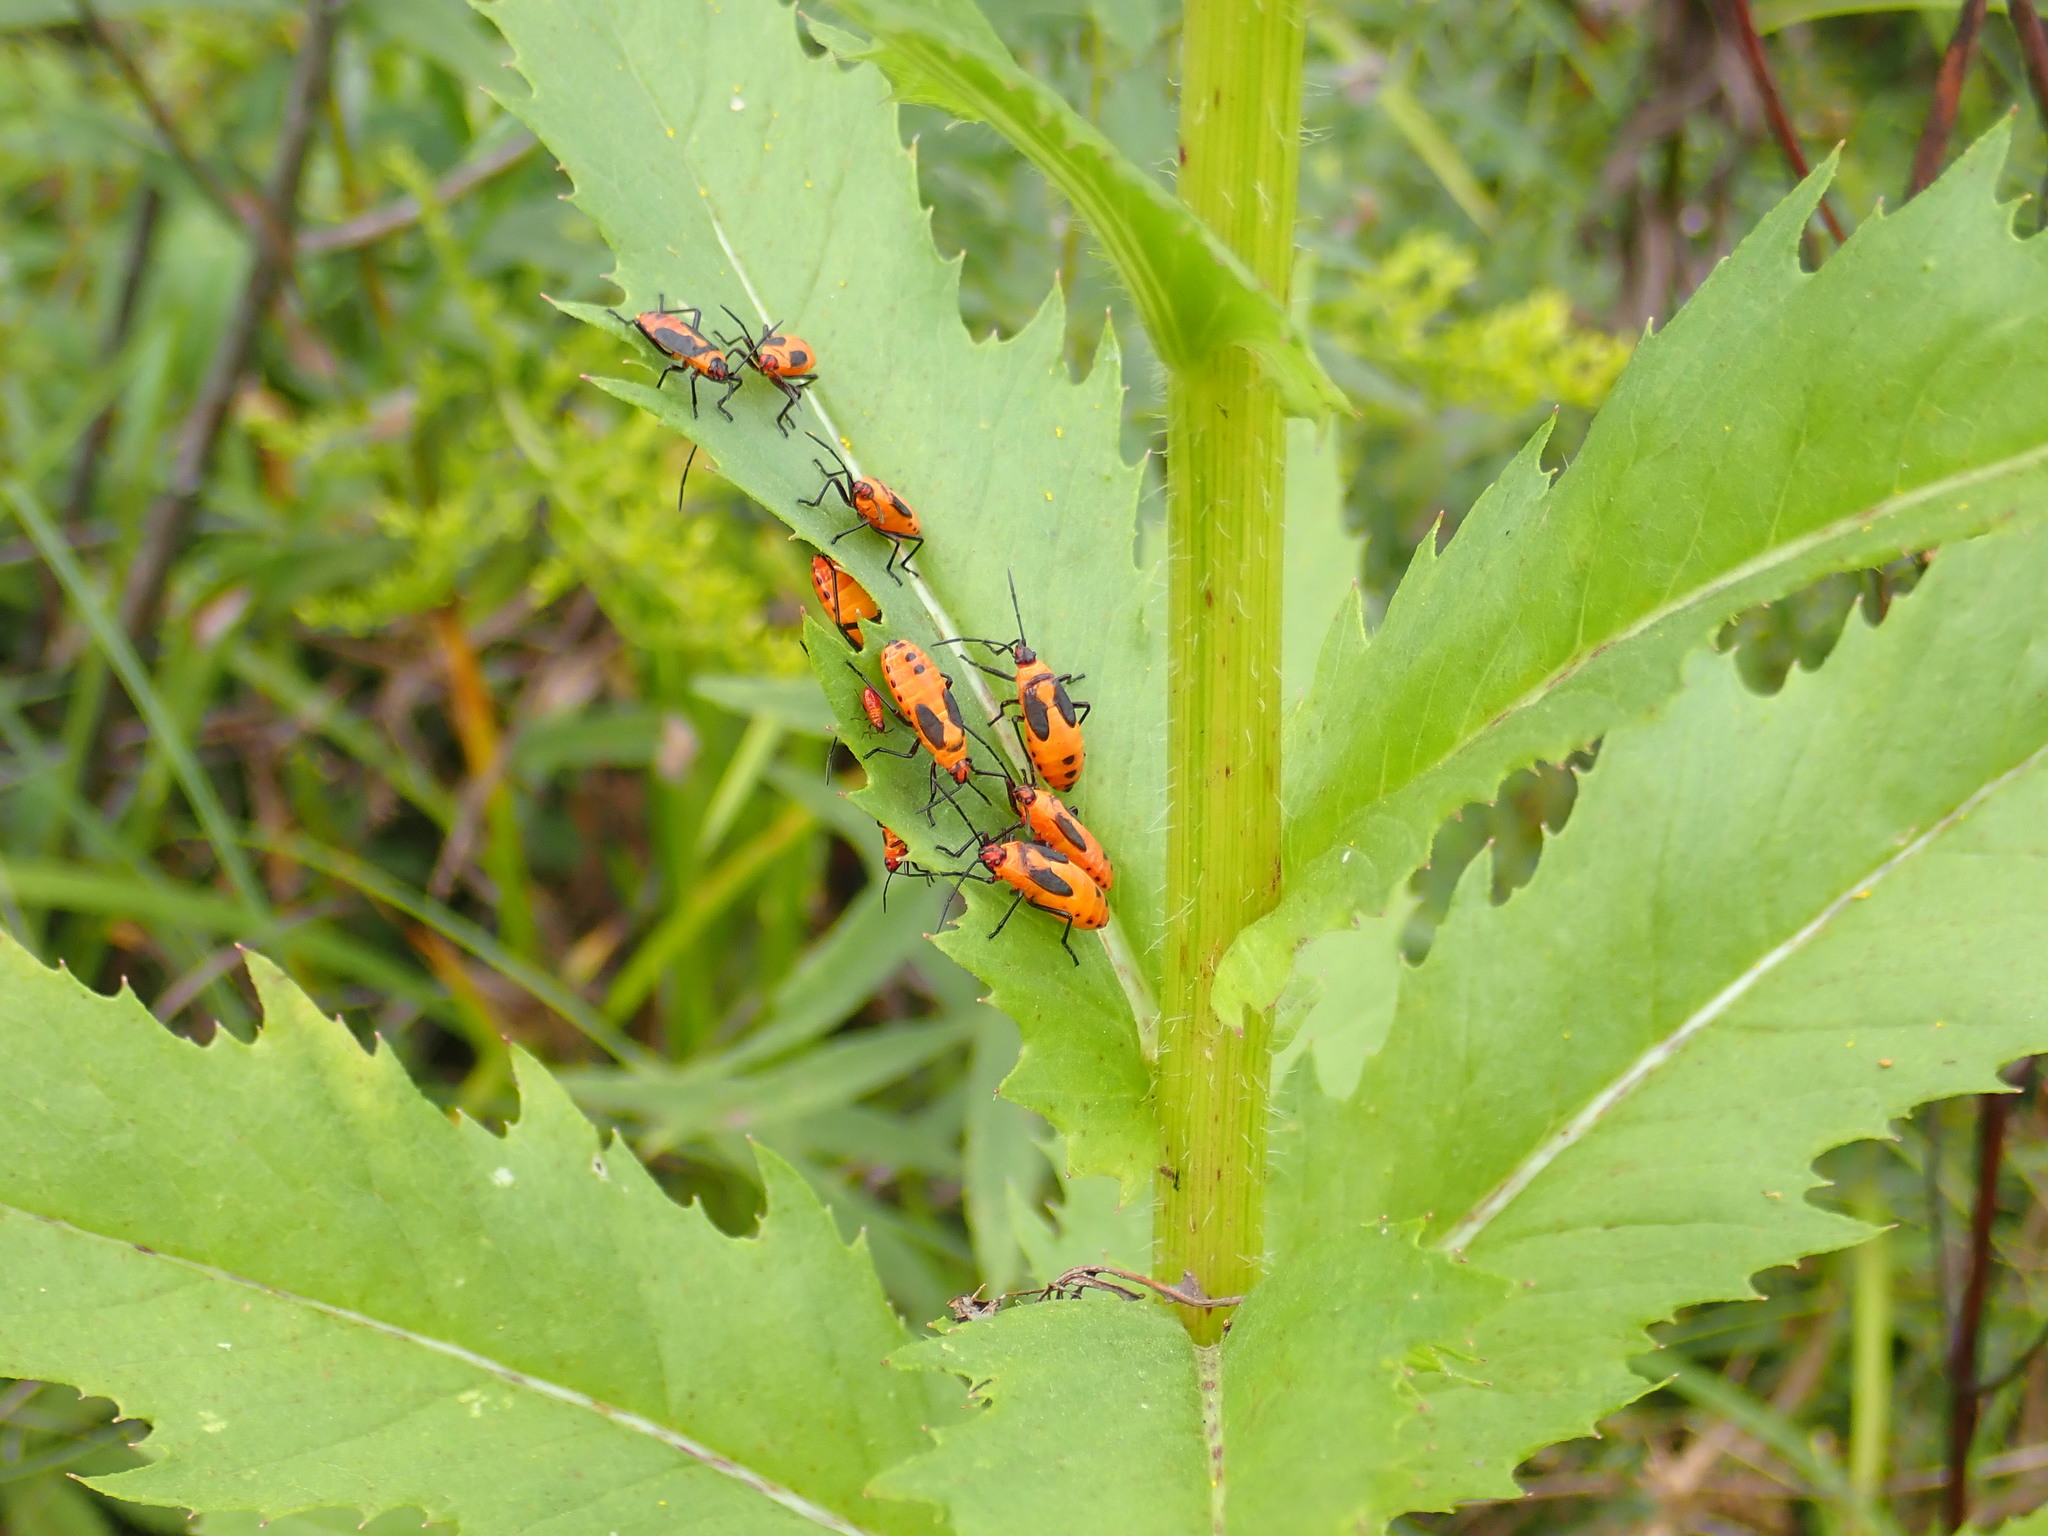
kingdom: Animalia
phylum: Arthropoda
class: Insecta
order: Hemiptera
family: Lygaeidae
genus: Oncopeltus
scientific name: Oncopeltus fasciatus
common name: Large milkweed bug
